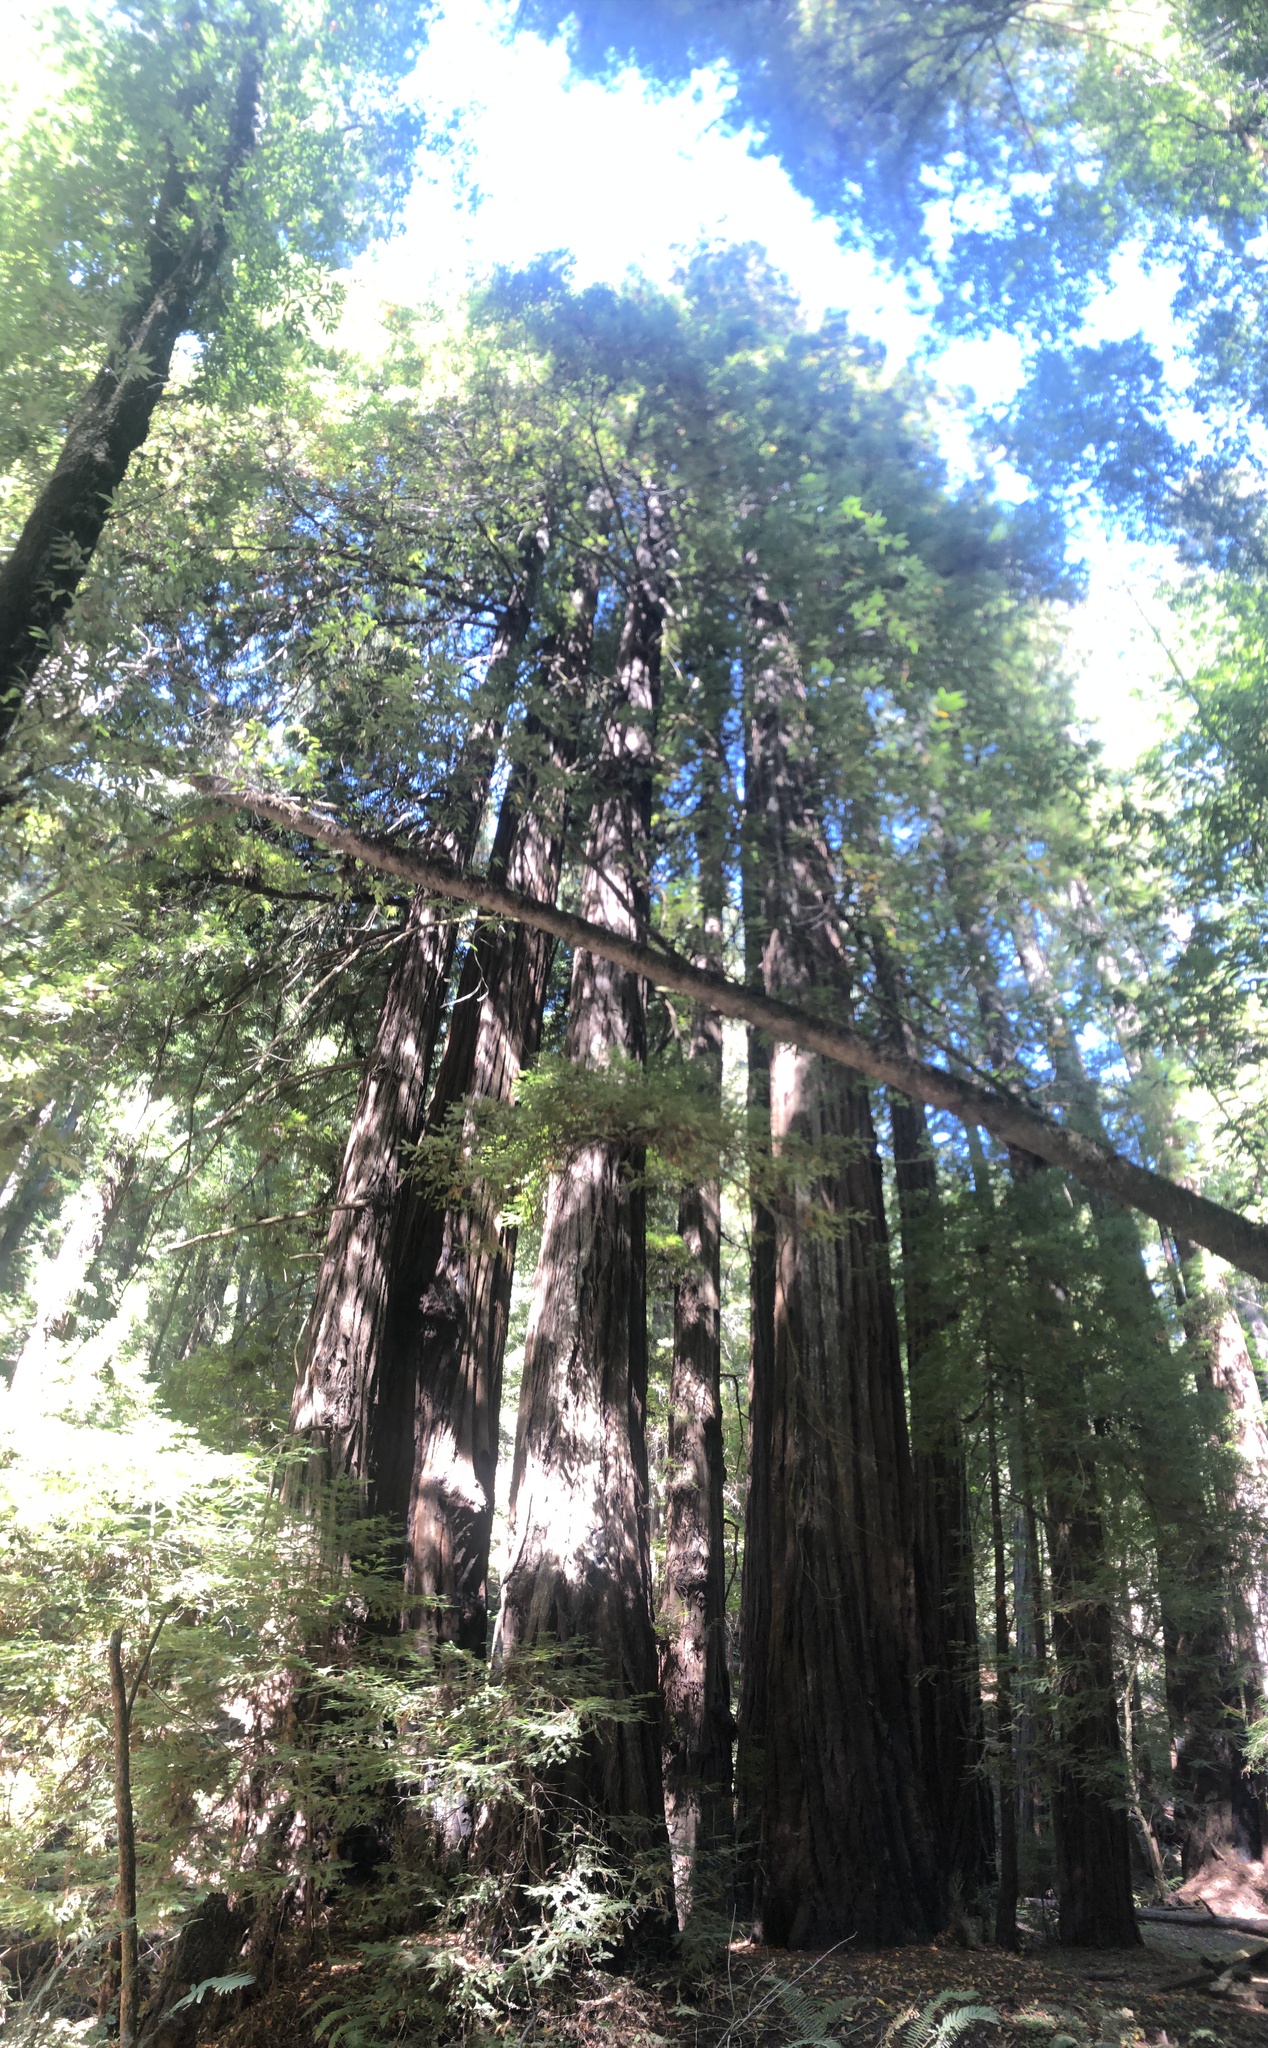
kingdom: Plantae
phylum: Tracheophyta
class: Pinopsida
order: Pinales
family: Cupressaceae
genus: Sequoia
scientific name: Sequoia sempervirens
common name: Coast redwood
